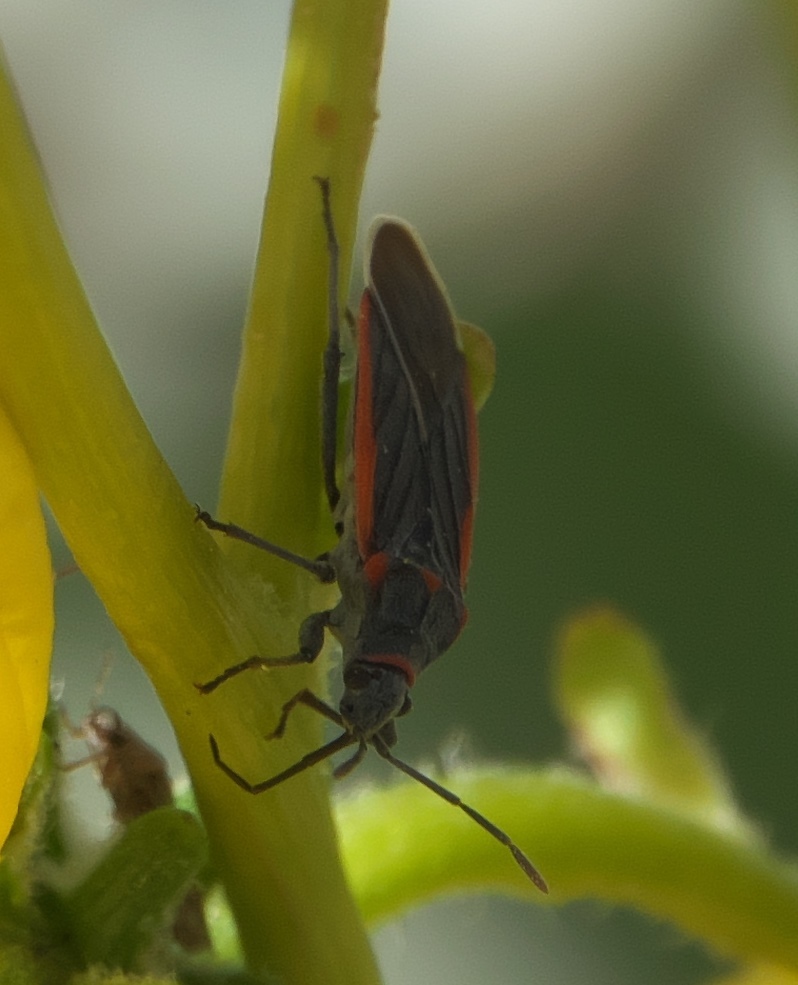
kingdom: Animalia
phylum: Arthropoda
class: Insecta
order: Hemiptera
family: Lygaeidae
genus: Melacoryphus
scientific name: Melacoryphus lateralis
